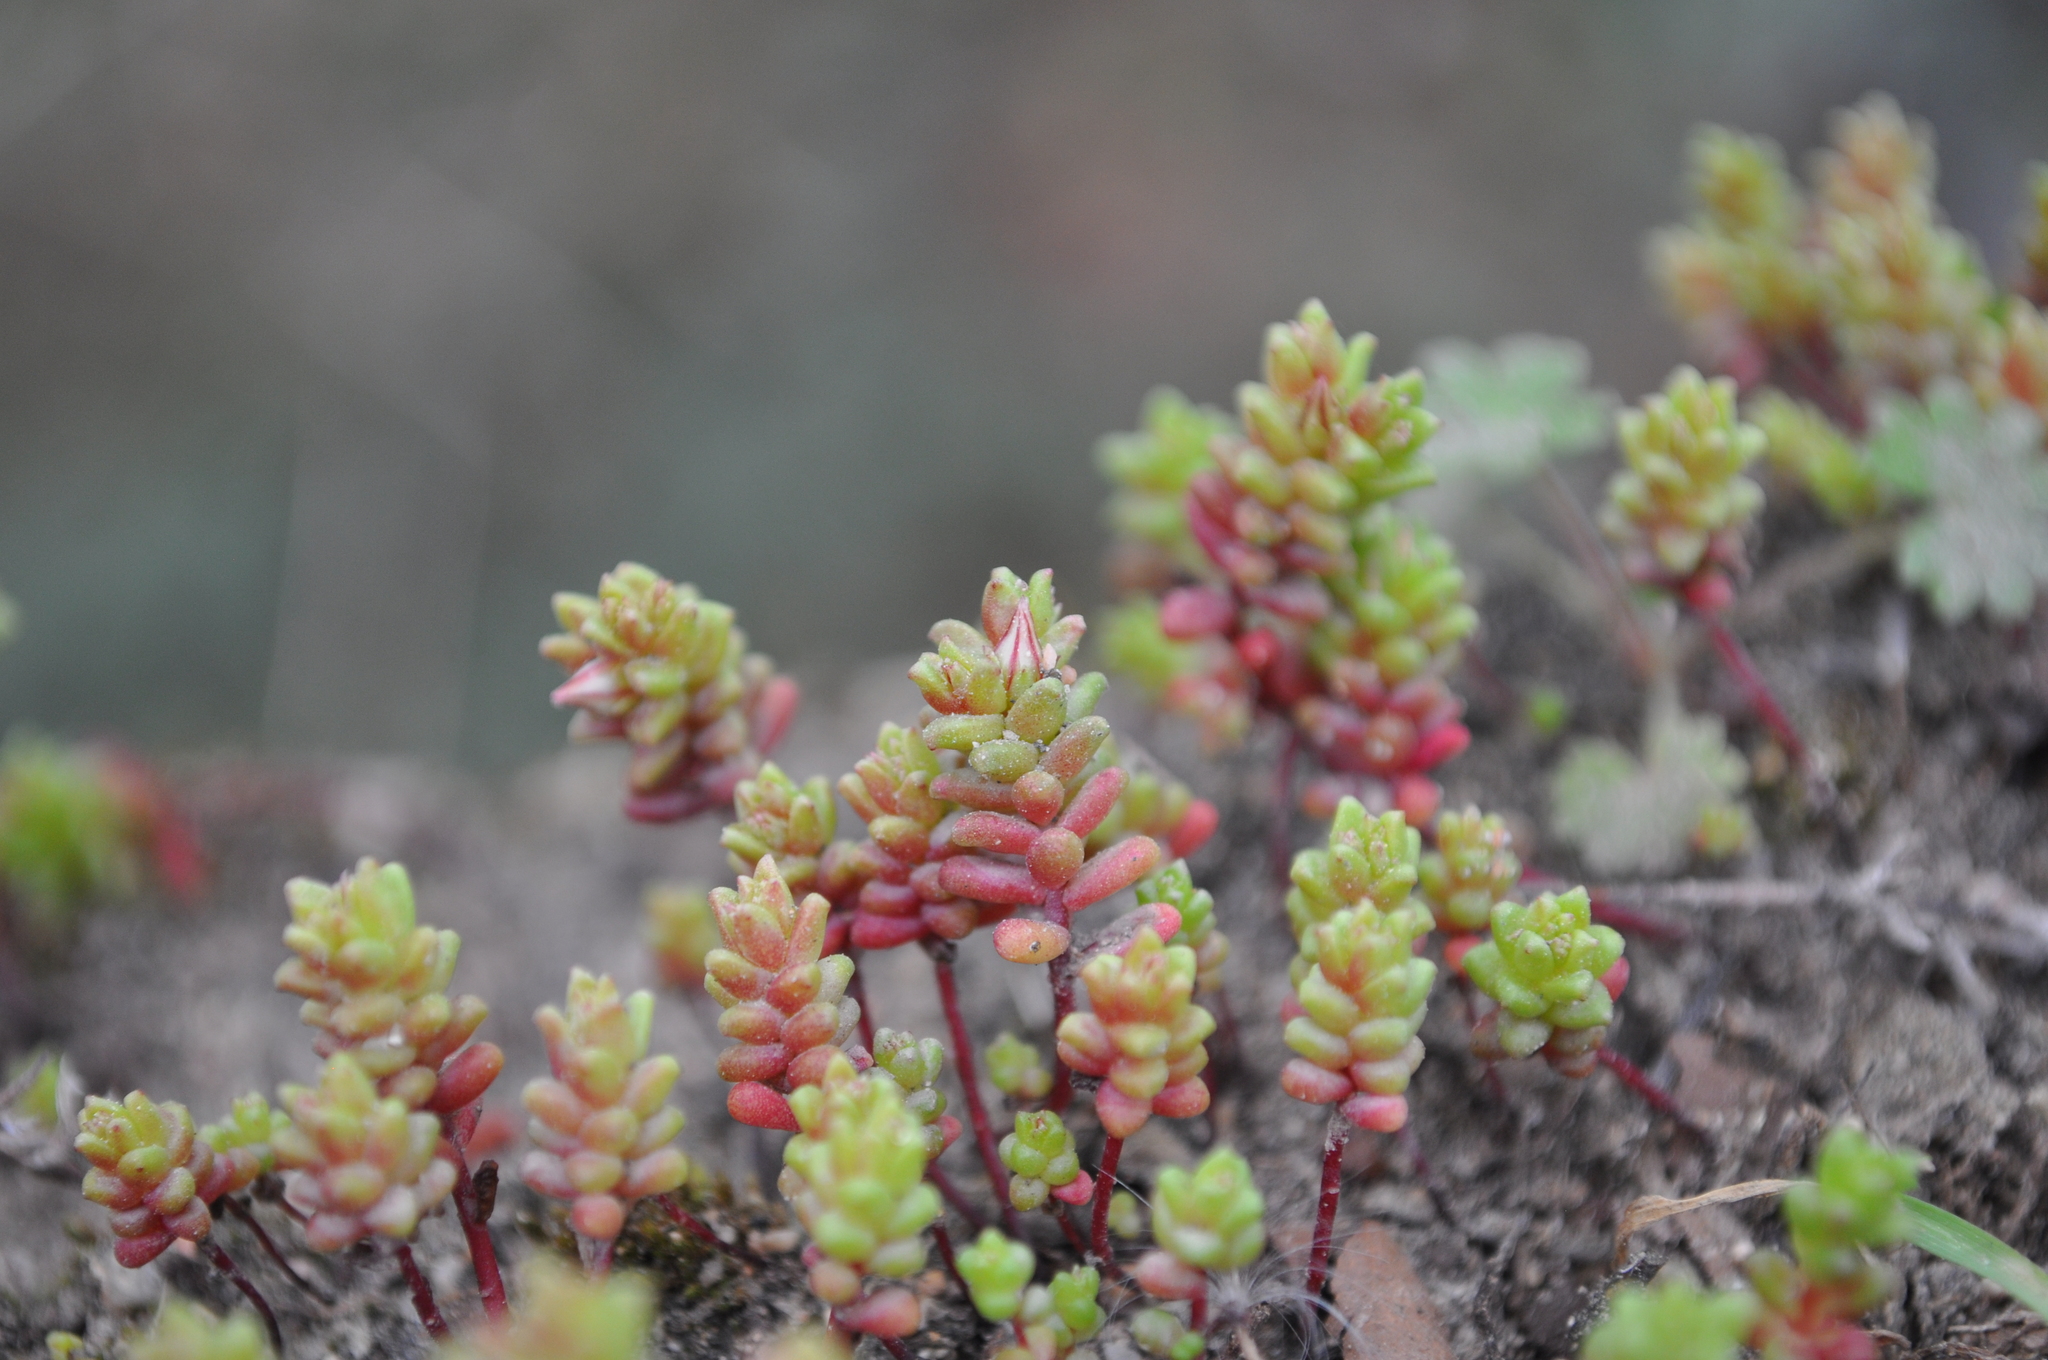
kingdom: Plantae
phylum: Tracheophyta
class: Magnoliopsida
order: Saxifragales
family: Crassulaceae
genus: Sedum
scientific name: Sedum cespitosum
